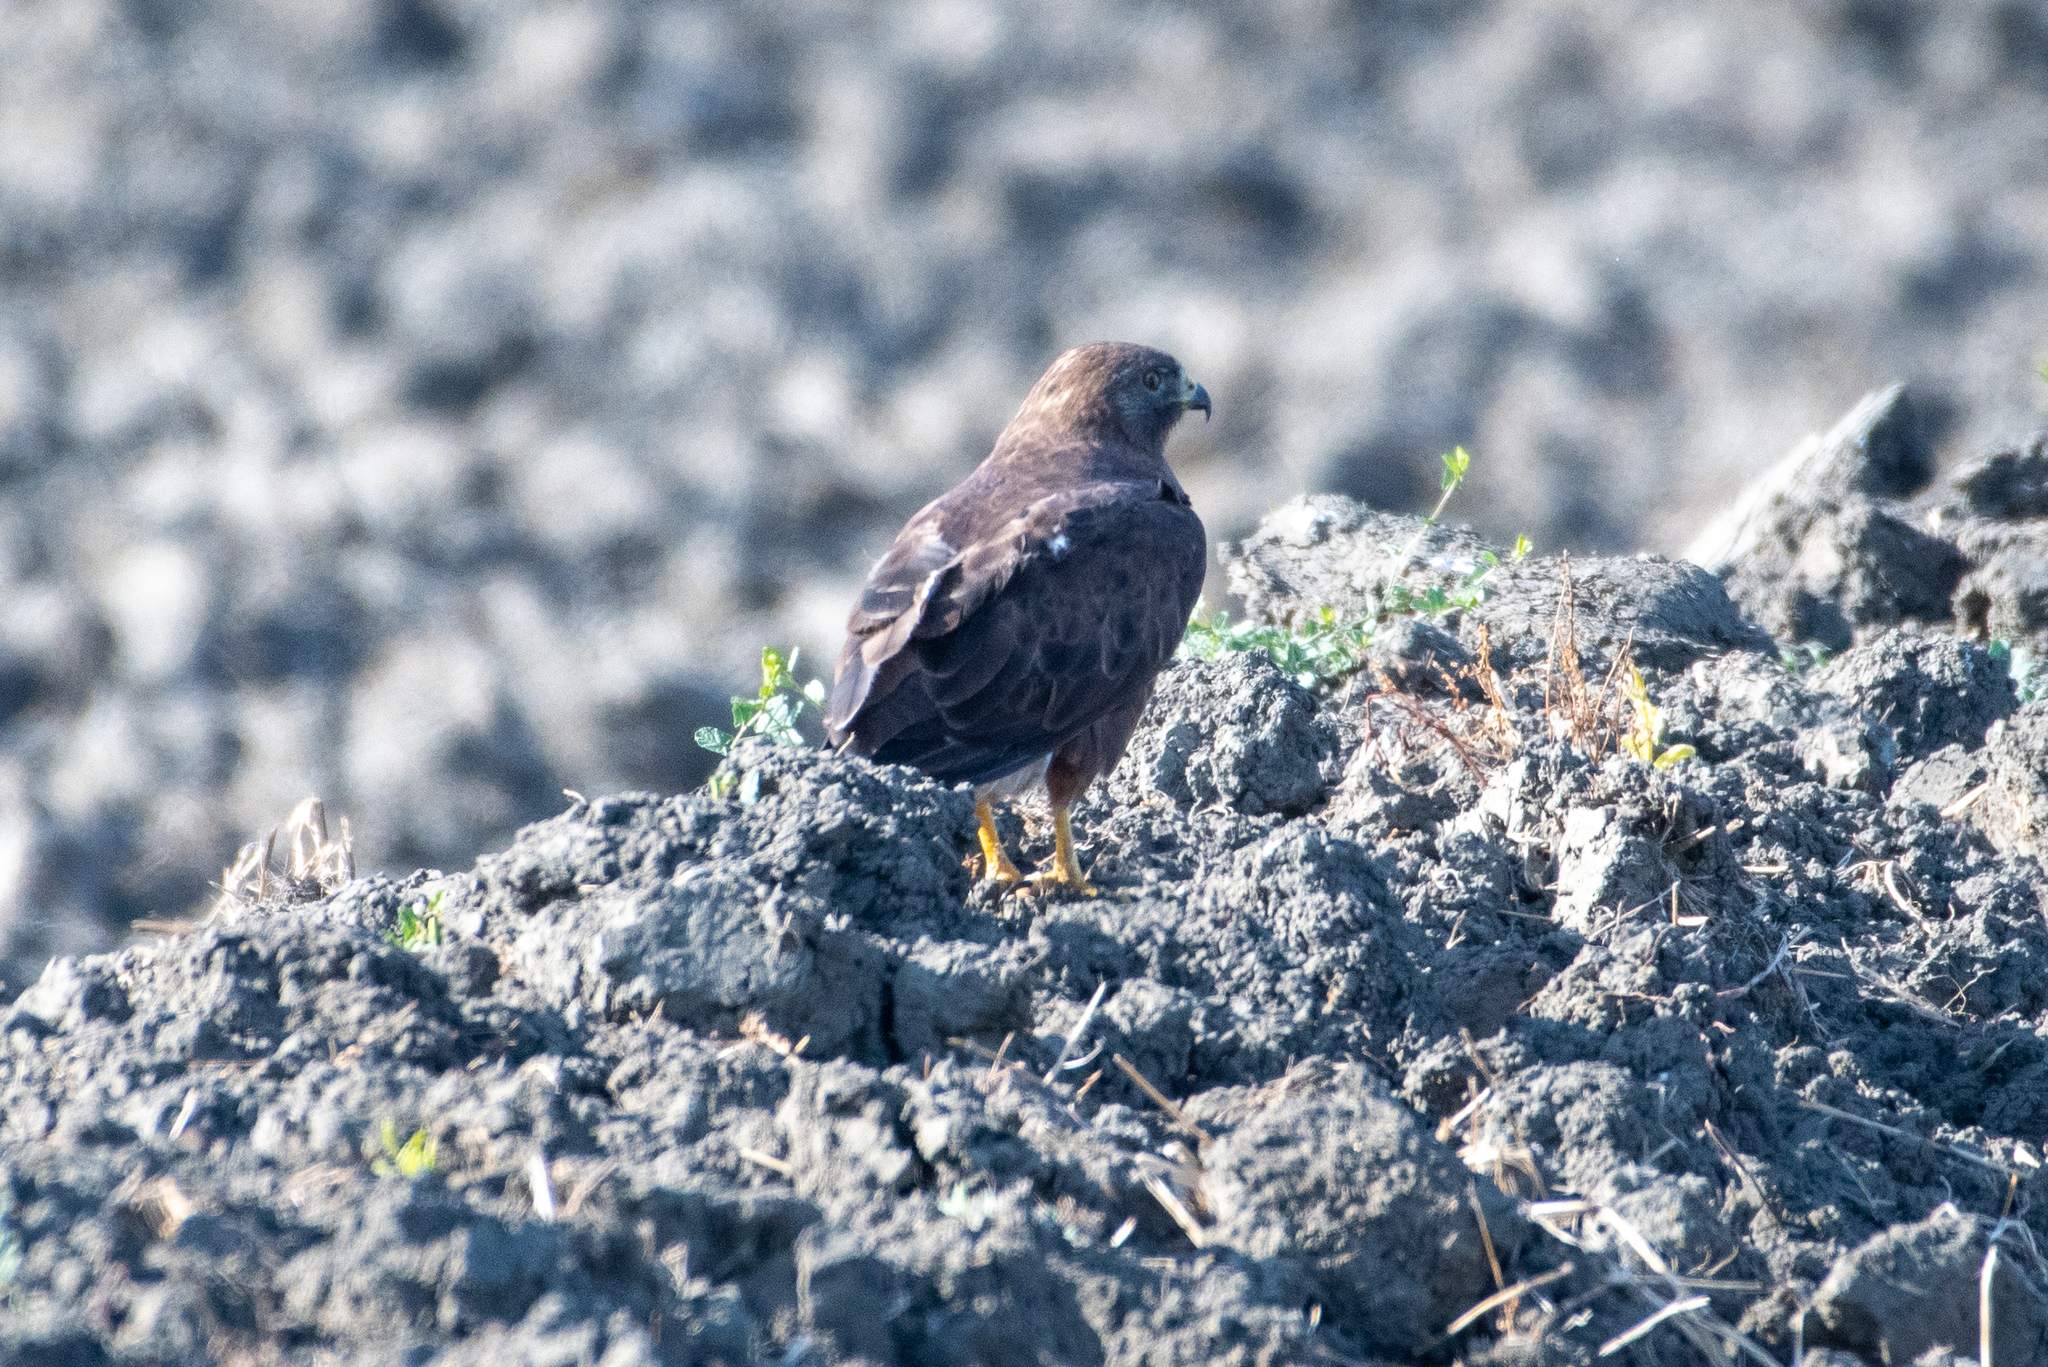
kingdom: Animalia
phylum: Chordata
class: Aves
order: Accipitriformes
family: Accipitridae
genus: Buteo
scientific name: Buteo swainsoni
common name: Swainson's hawk
